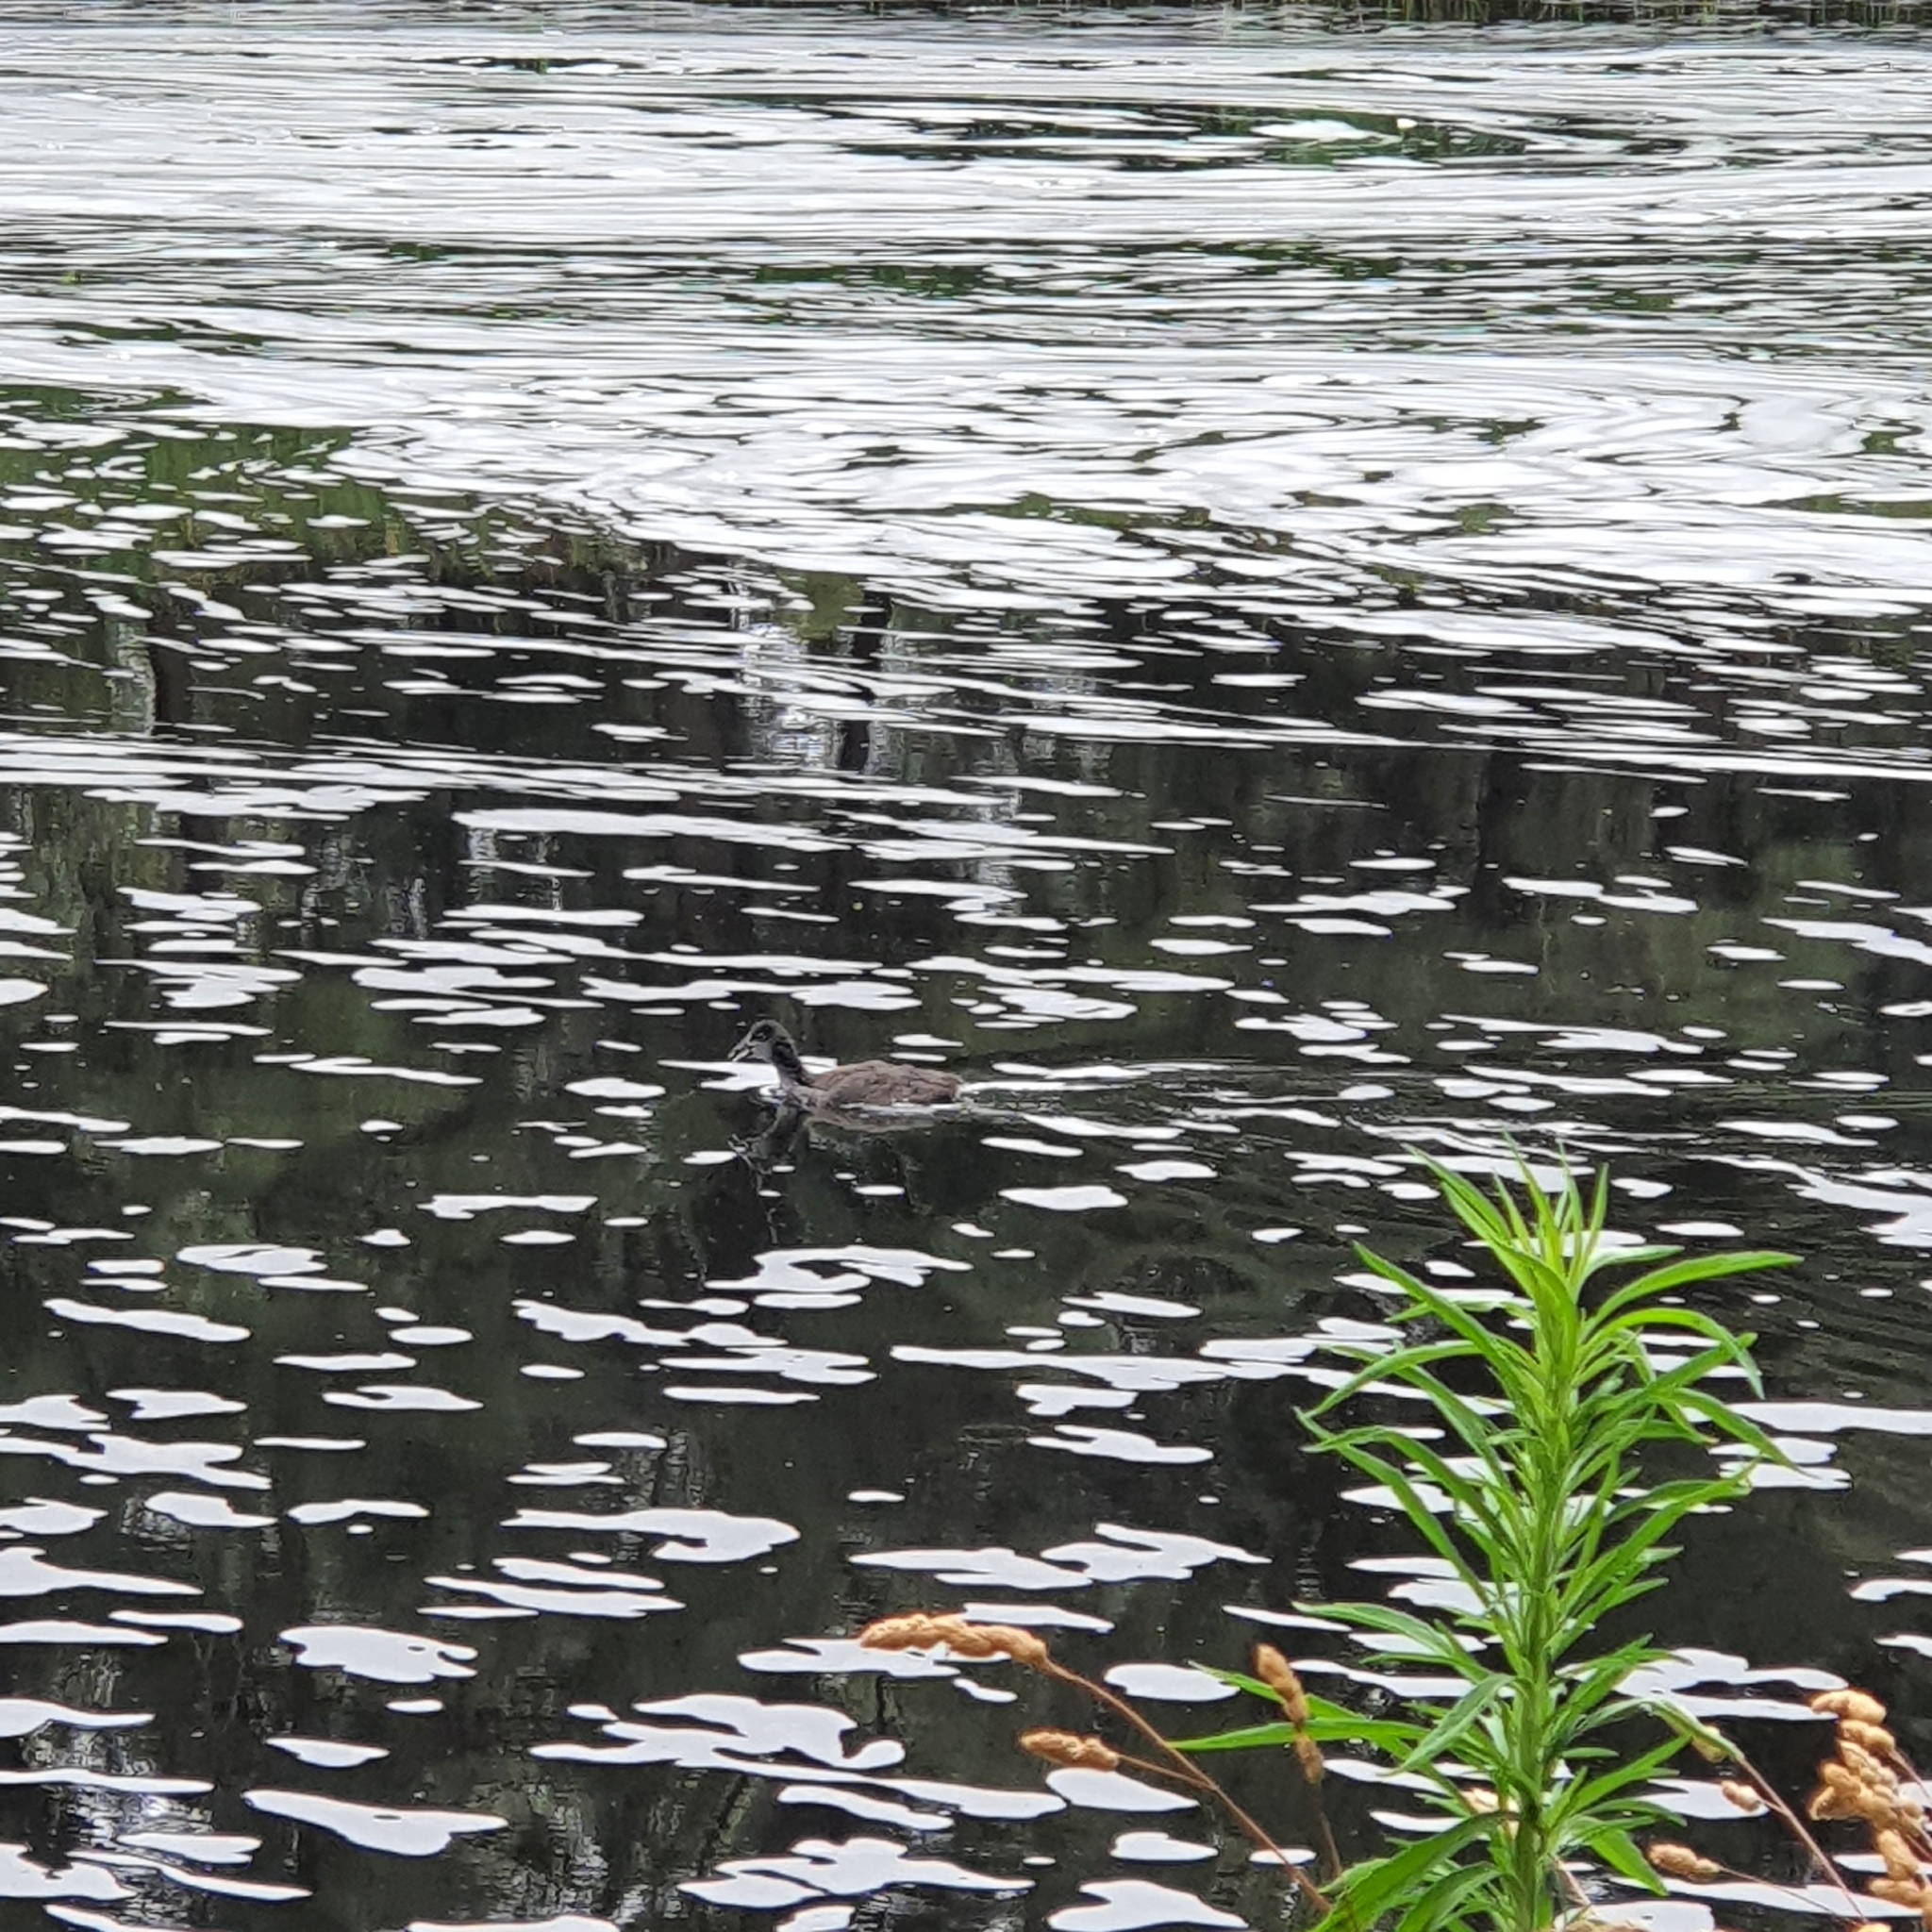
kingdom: Animalia
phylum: Chordata
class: Aves
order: Gruiformes
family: Rallidae
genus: Fulica
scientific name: Fulica atra
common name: Eurasian coot
